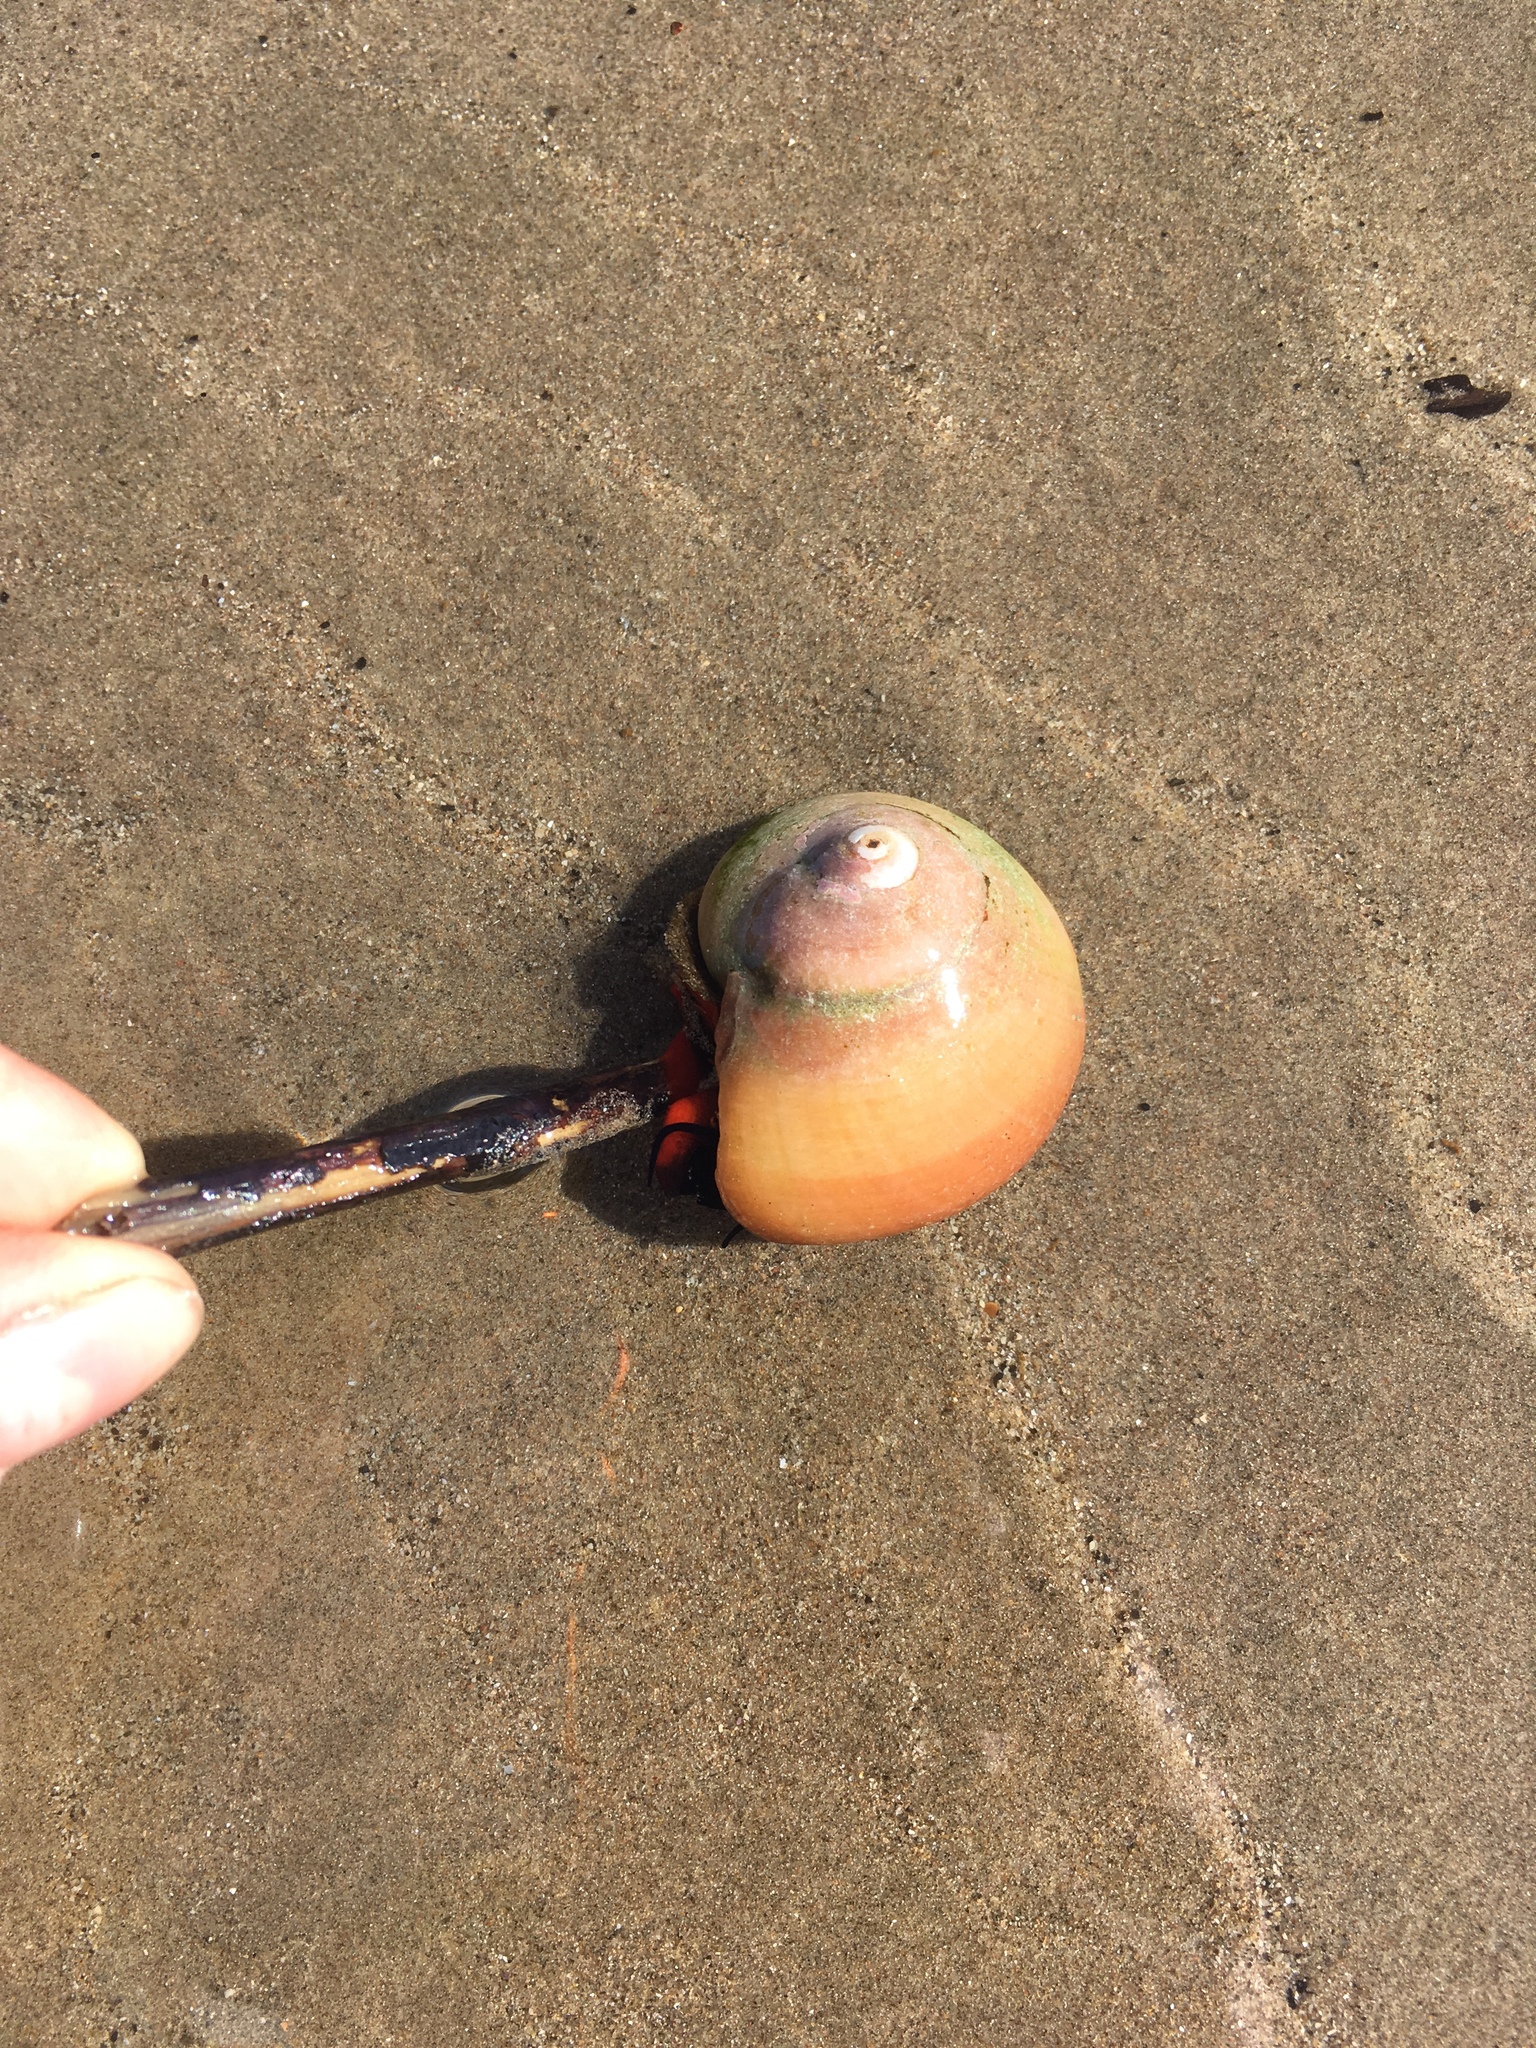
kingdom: Animalia
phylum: Mollusca
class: Gastropoda
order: Trochida
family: Tegulidae
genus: Norrisia
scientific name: Norrisia norrisii
